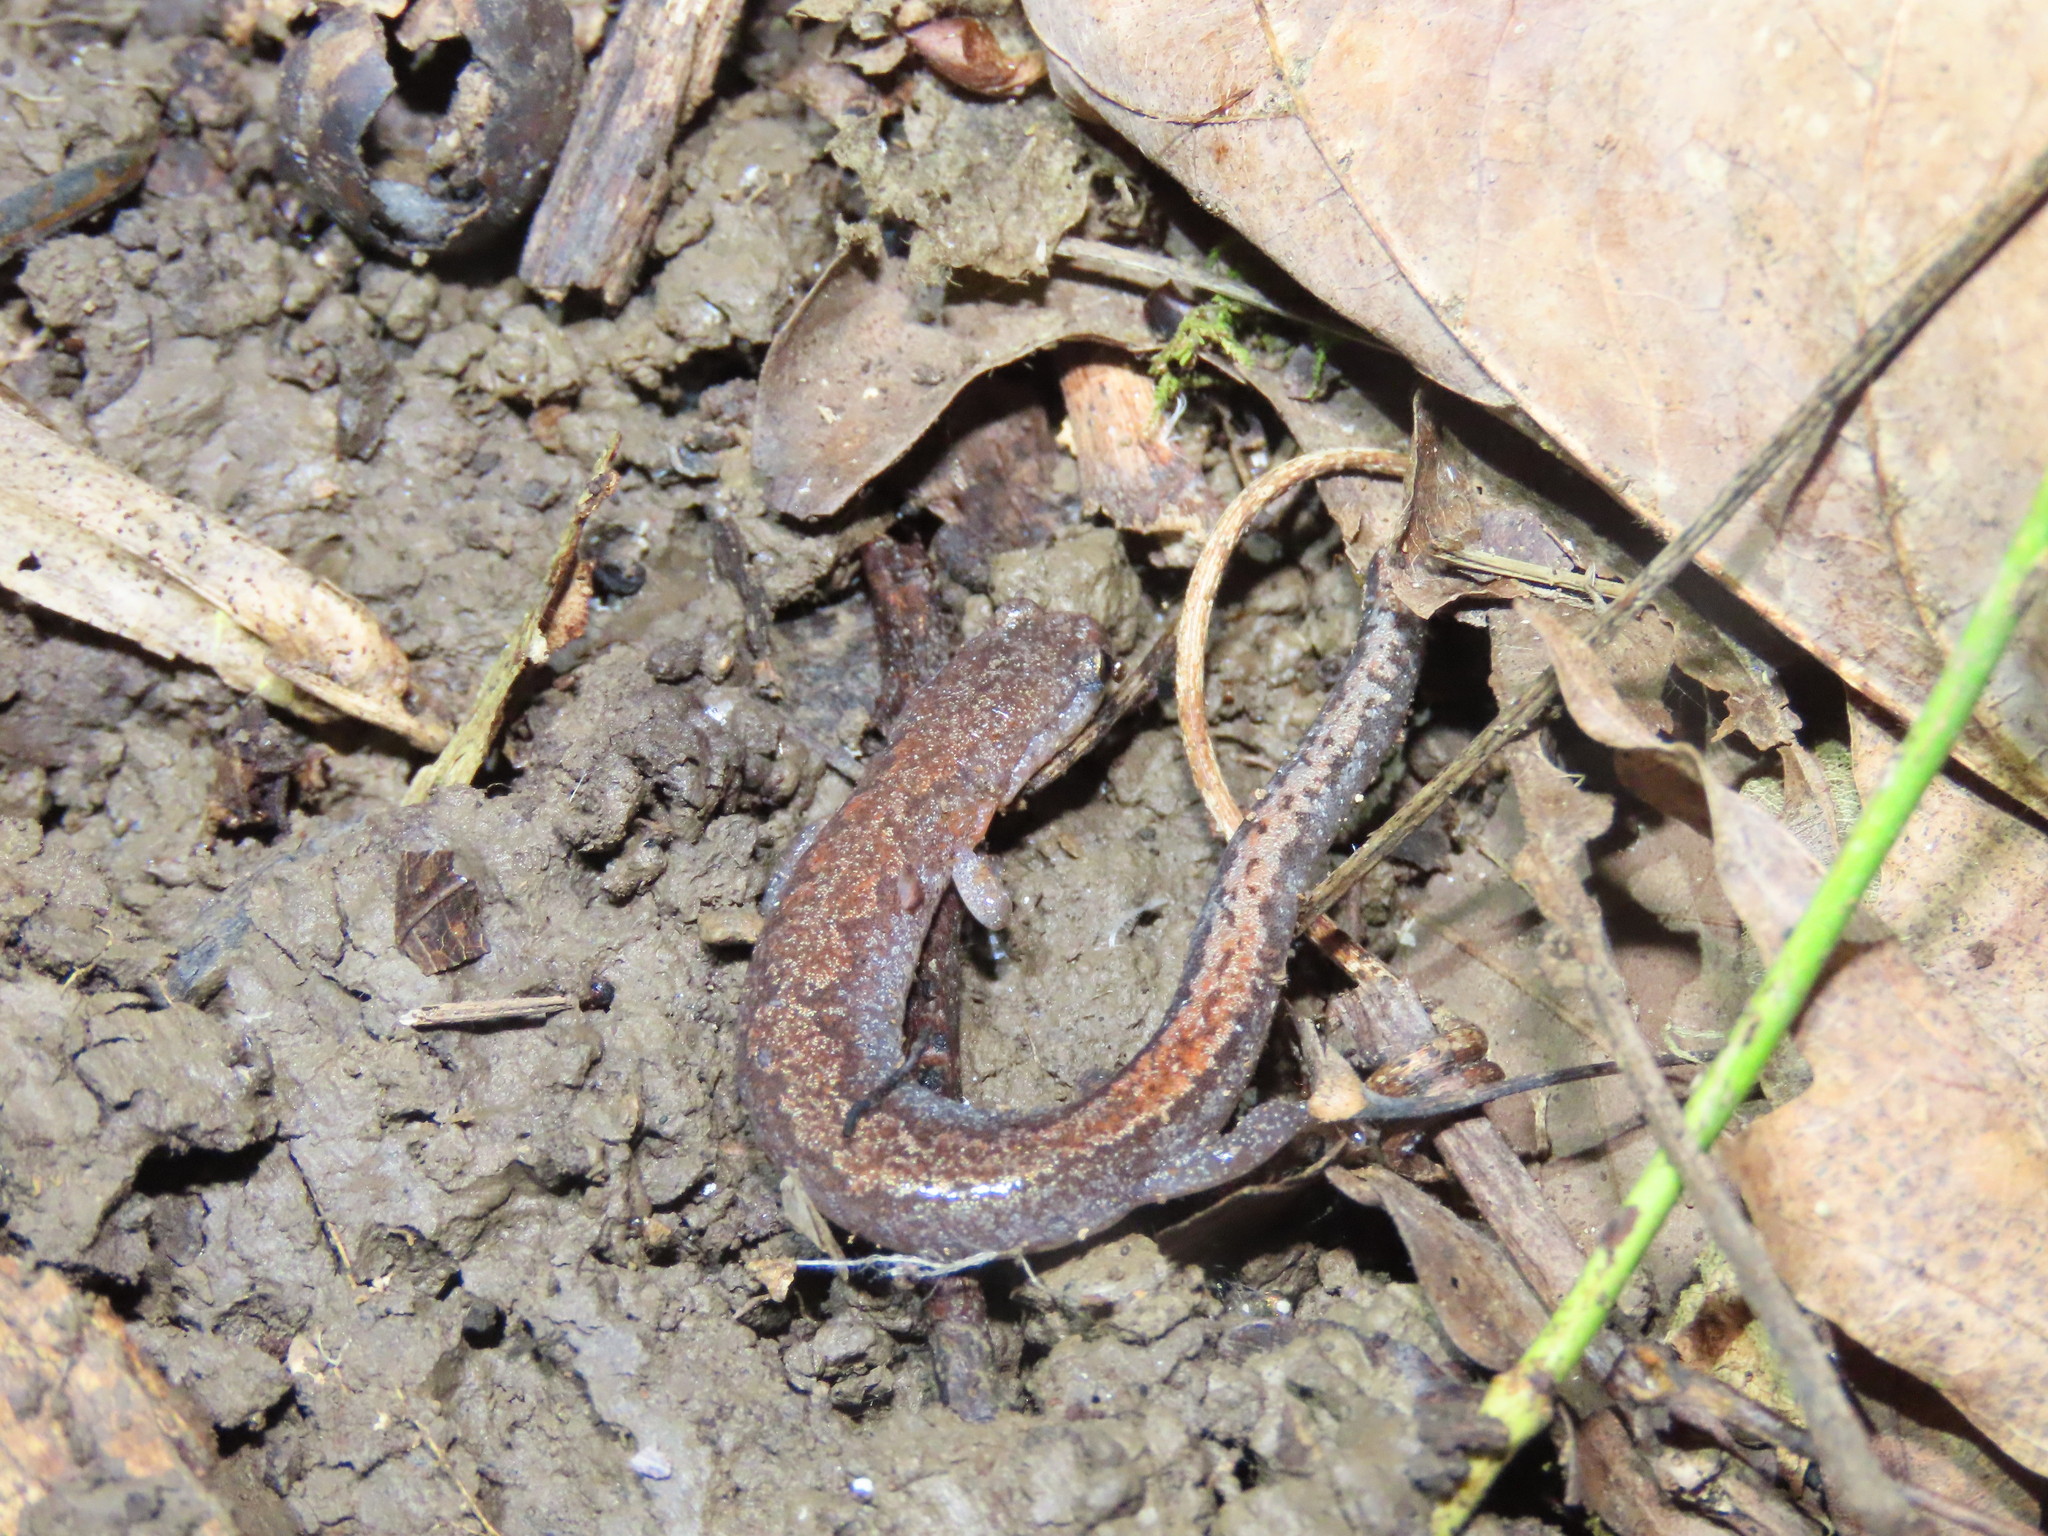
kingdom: Animalia
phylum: Chordata
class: Amphibia
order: Caudata
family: Plethodontidae
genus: Plethodon
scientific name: Plethodon dorsalis
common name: Northern zigzag salamander
